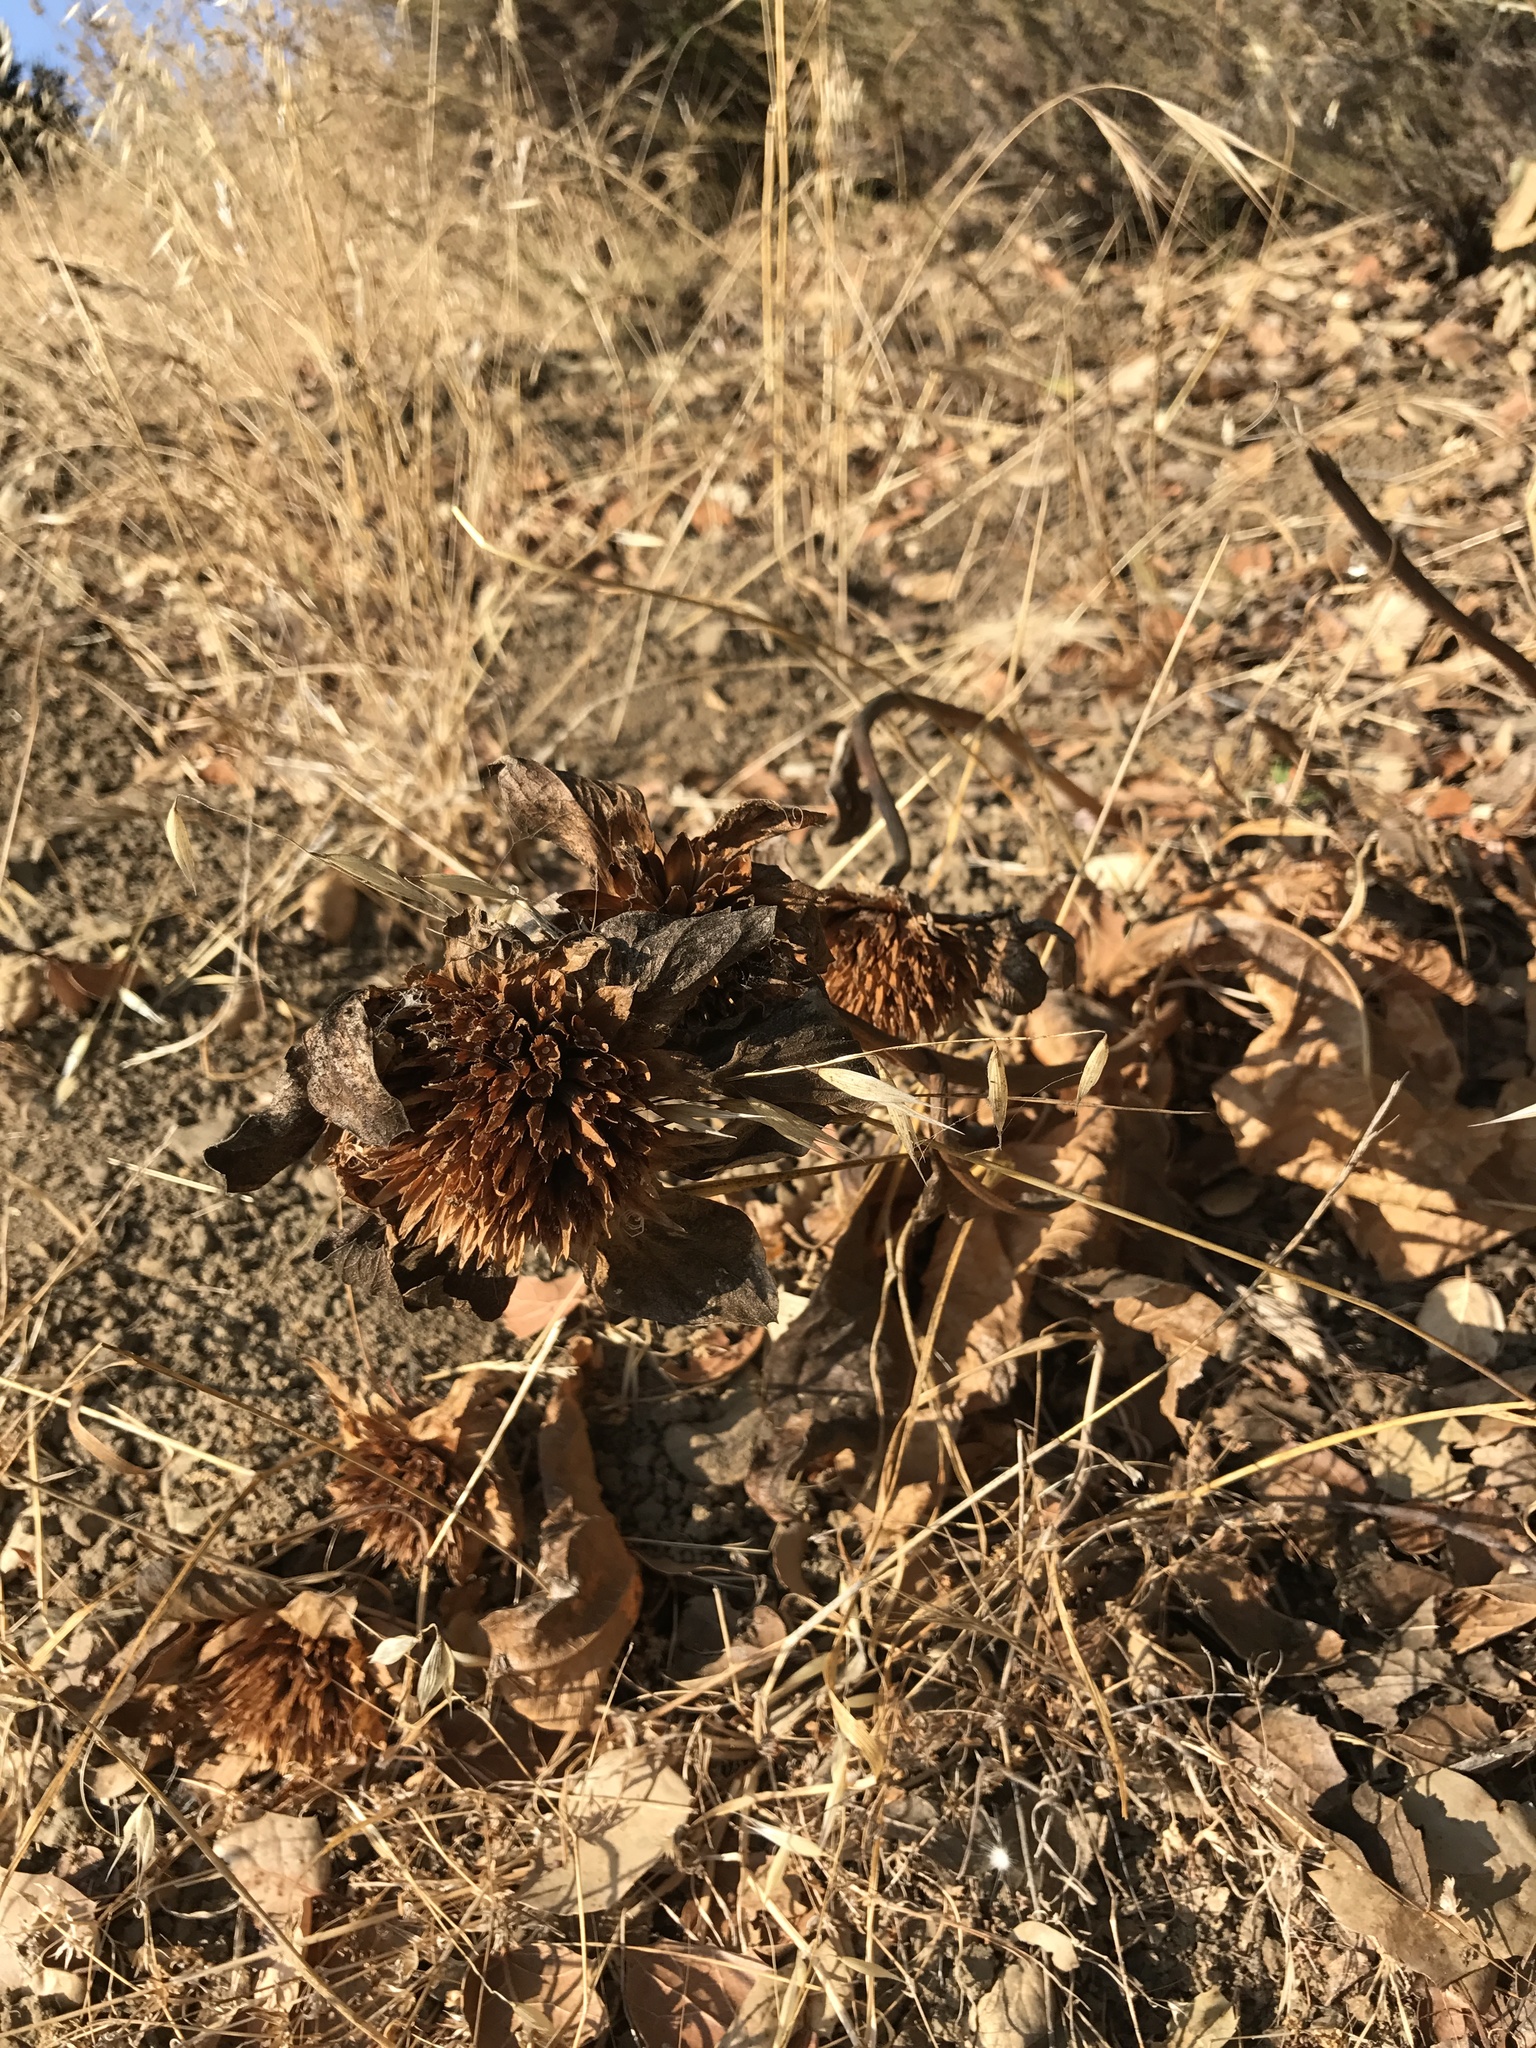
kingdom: Plantae
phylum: Tracheophyta
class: Magnoliopsida
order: Asterales
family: Asteraceae
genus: Wyethia
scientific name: Wyethia glabra
